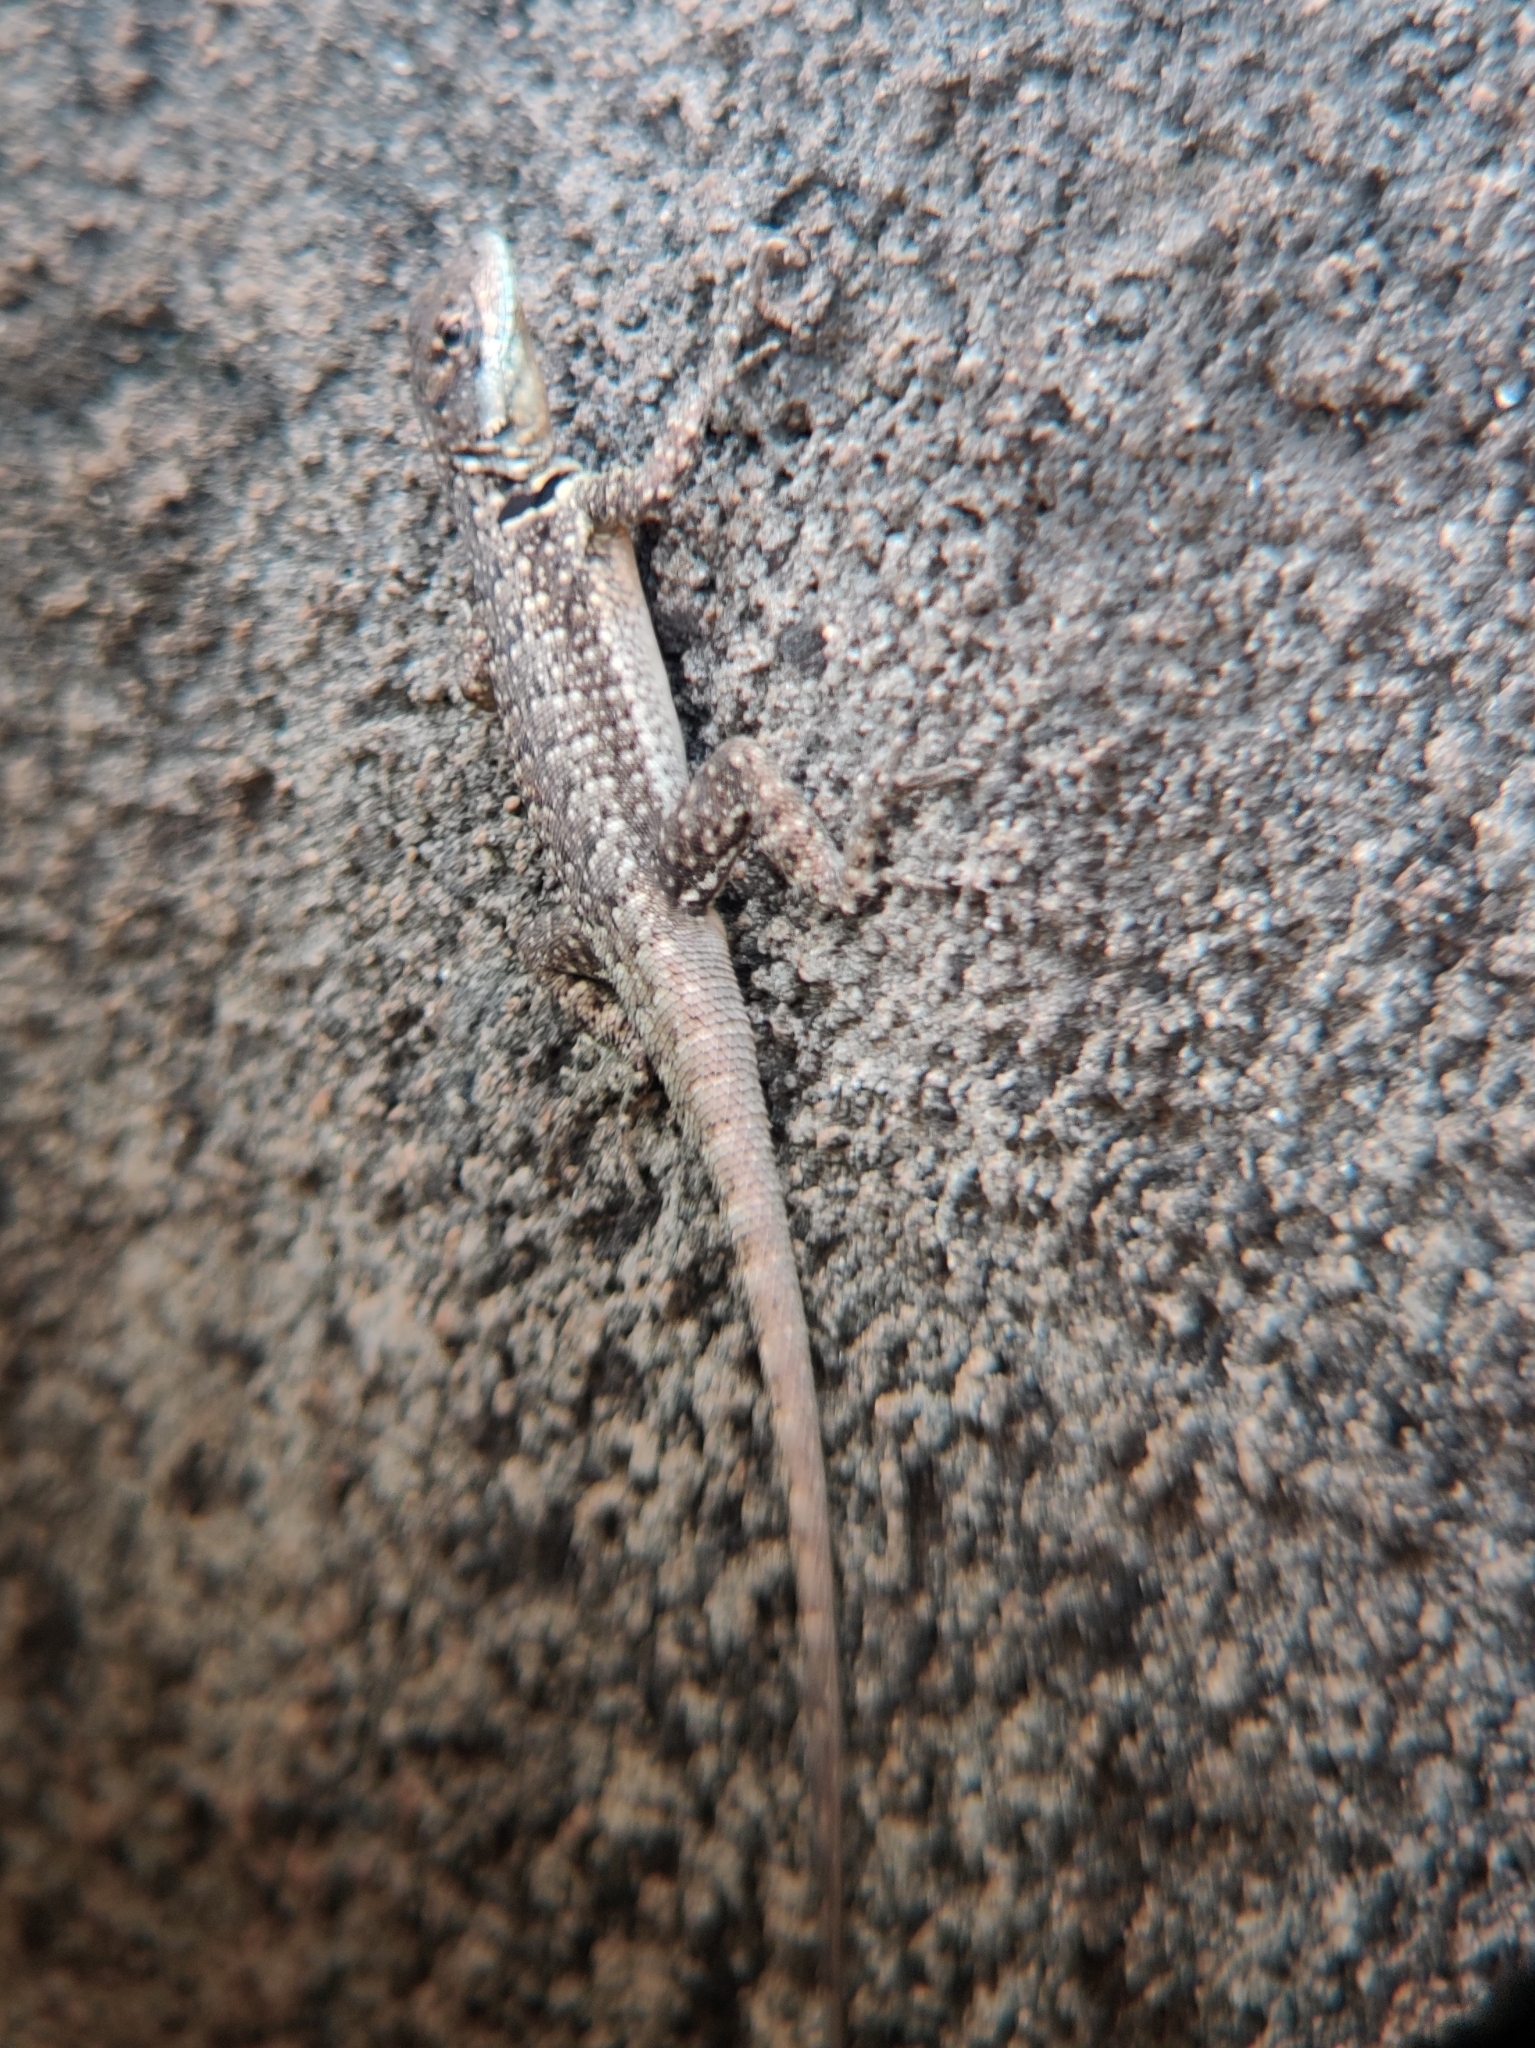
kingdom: Animalia
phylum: Chordata
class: Squamata
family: Tropiduridae
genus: Tropidurus
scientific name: Tropidurus catalanensis
